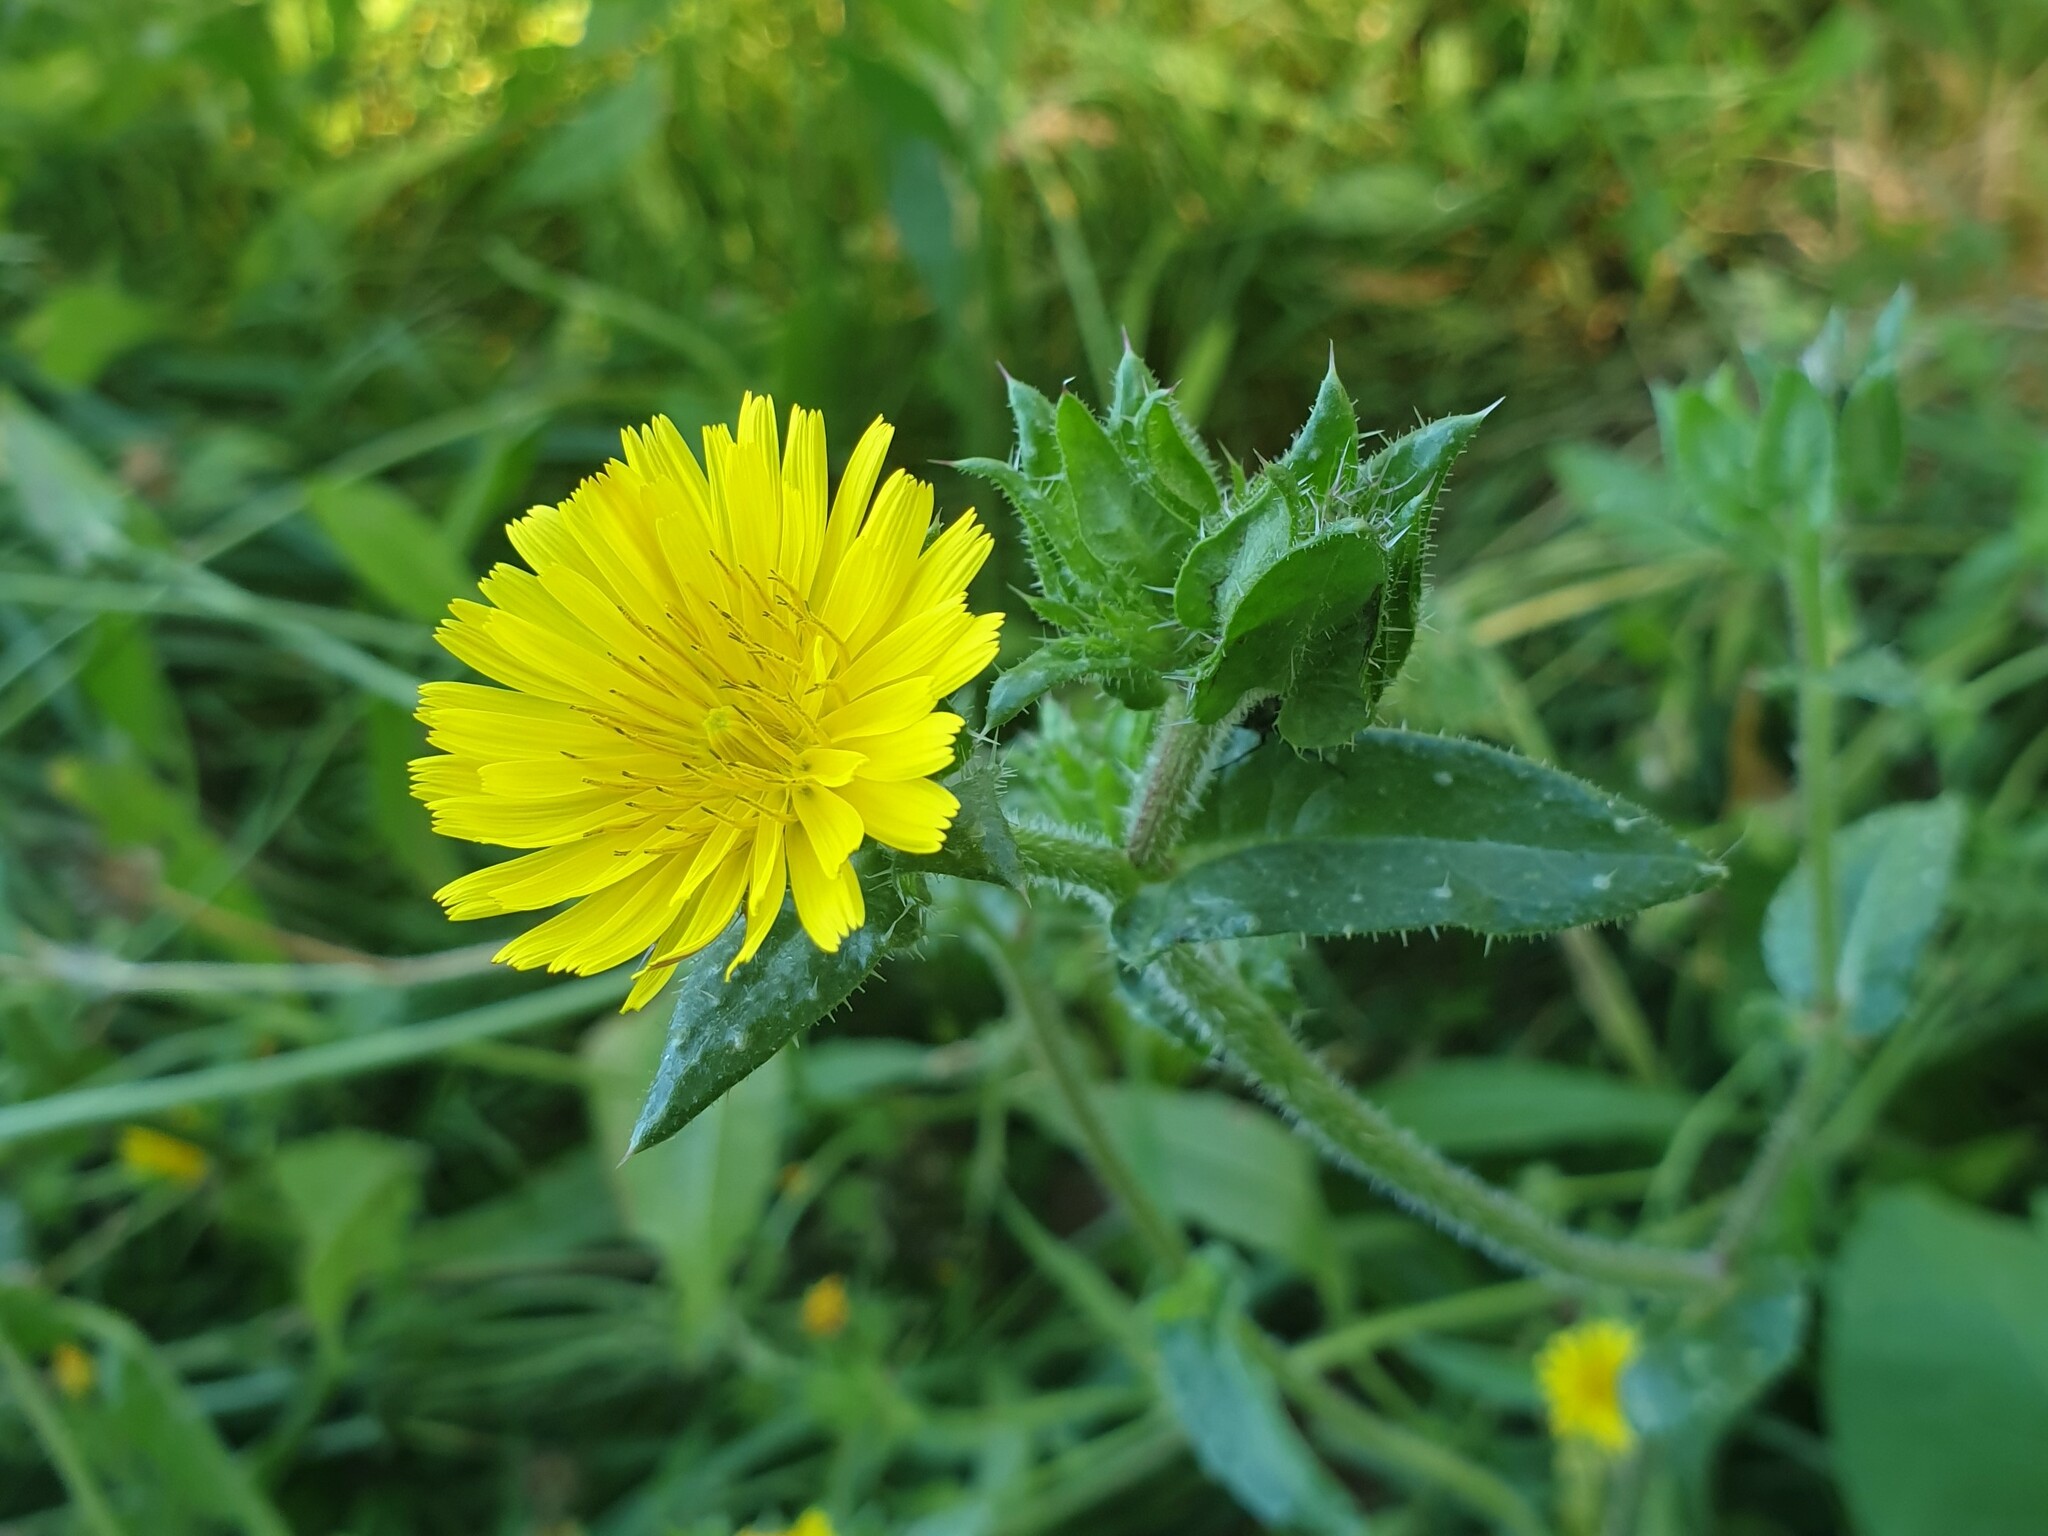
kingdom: Plantae
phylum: Tracheophyta
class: Magnoliopsida
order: Asterales
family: Asteraceae
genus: Helminthotheca
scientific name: Helminthotheca echioides
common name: Ox-tongue
